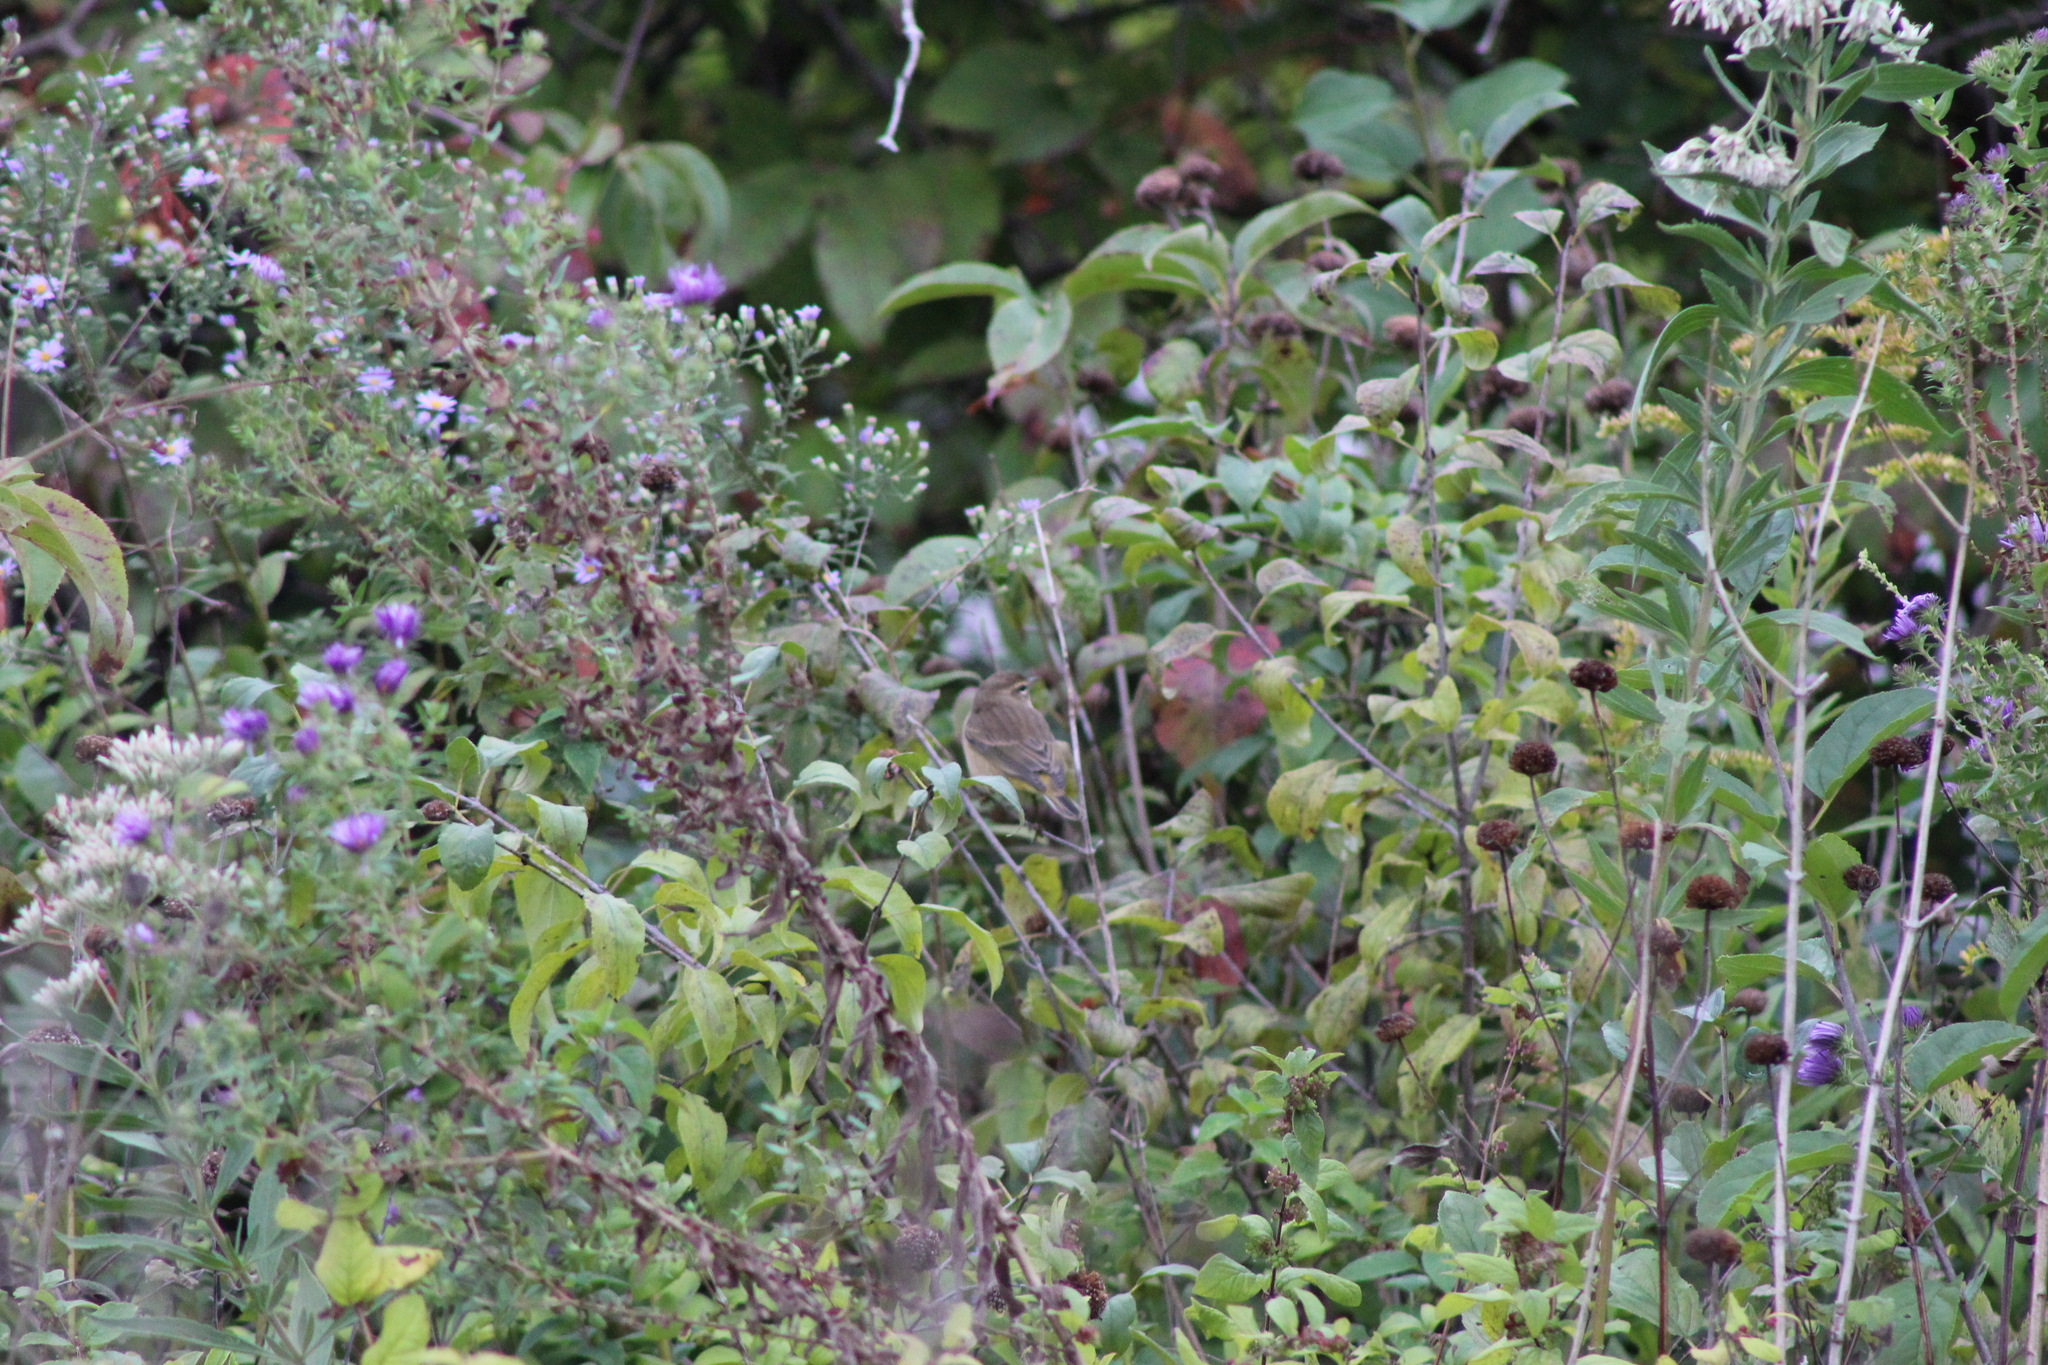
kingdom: Animalia
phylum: Chordata
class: Aves
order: Passeriformes
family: Parulidae
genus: Setophaga
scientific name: Setophaga palmarum
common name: Palm warbler
